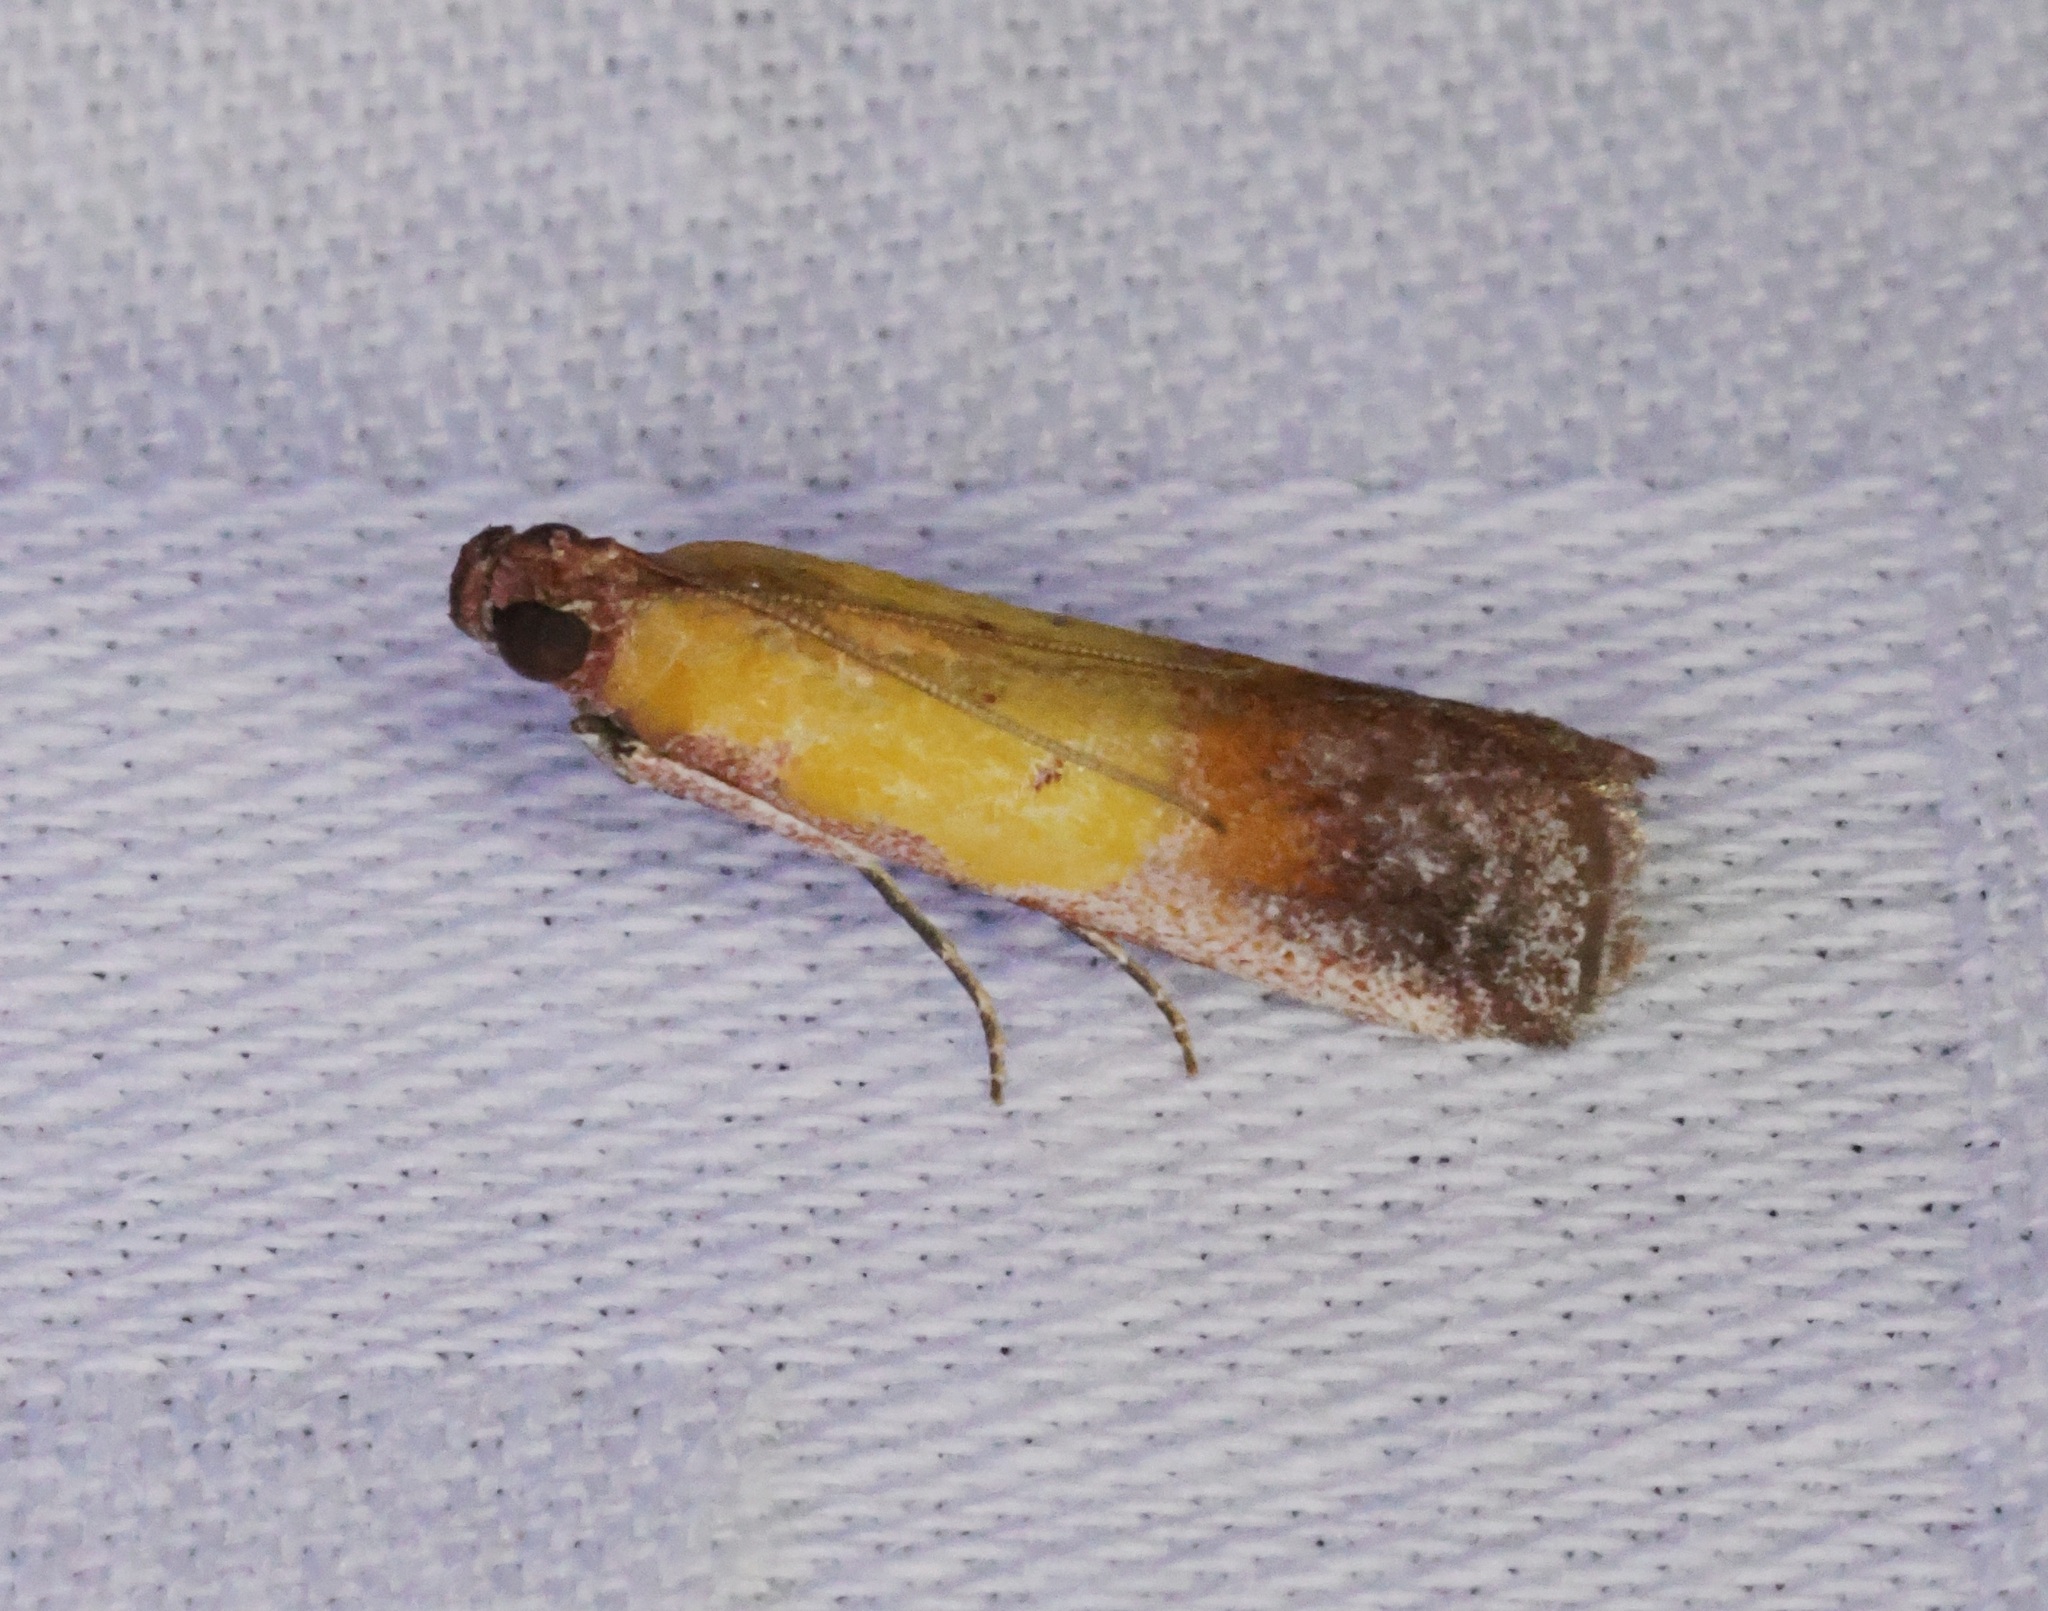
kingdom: Animalia
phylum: Arthropoda
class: Insecta
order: Lepidoptera
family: Pyralidae
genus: Piesmopoda
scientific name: Piesmopoda
